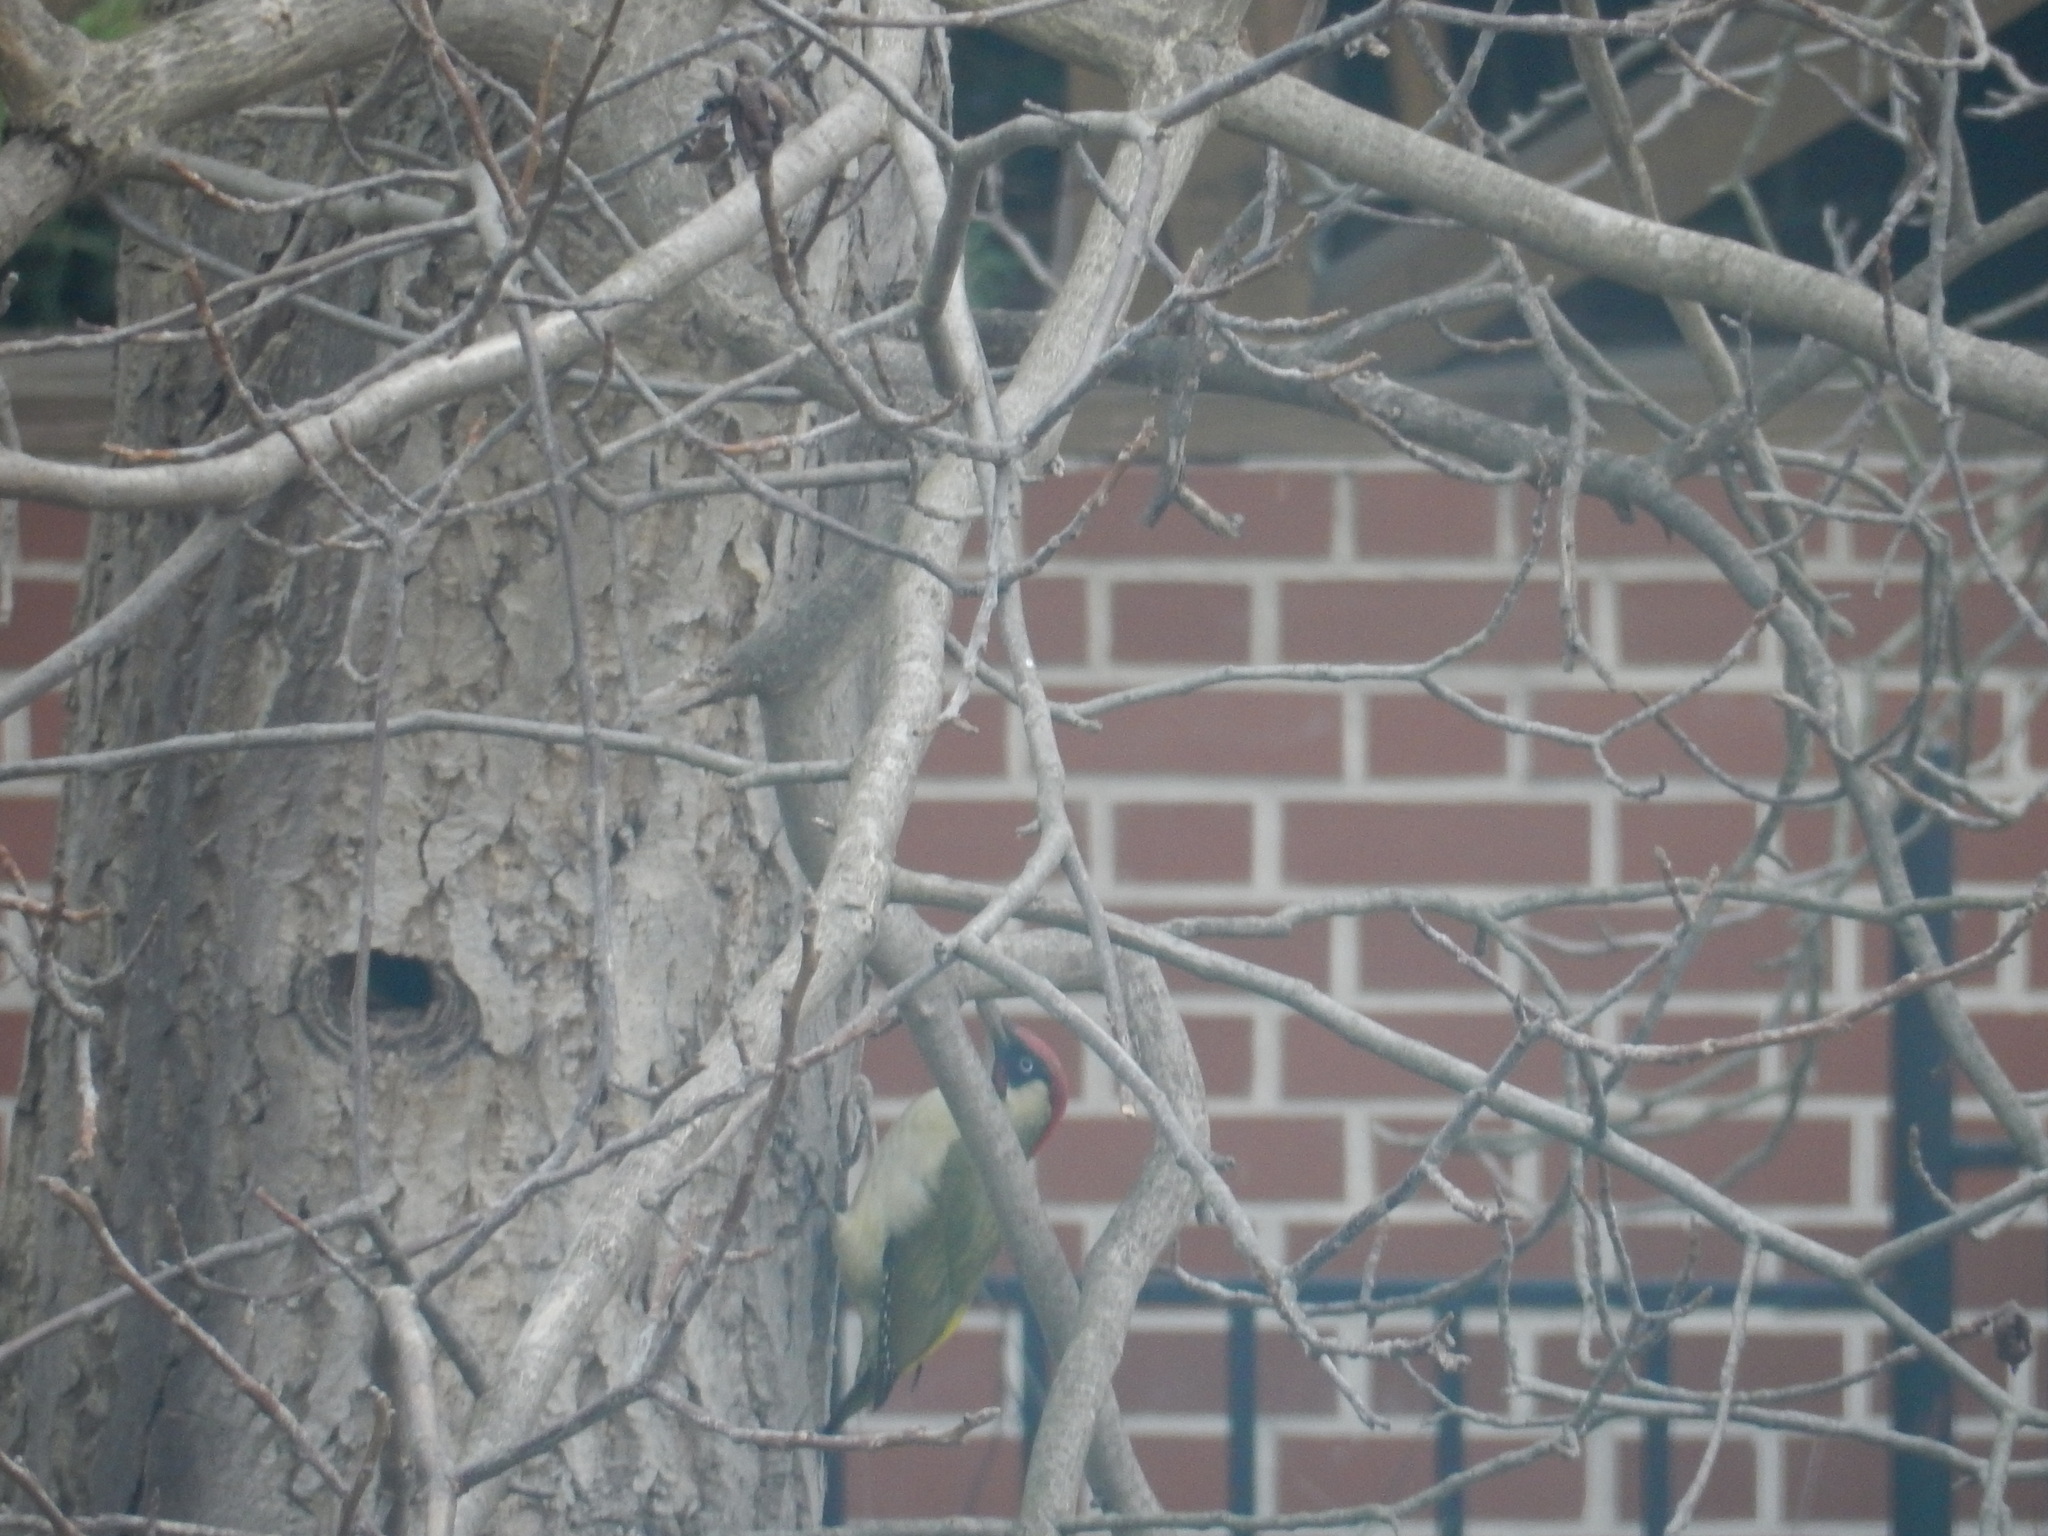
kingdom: Animalia
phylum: Chordata
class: Aves
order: Piciformes
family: Picidae
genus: Picus
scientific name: Picus viridis
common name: European green woodpecker
